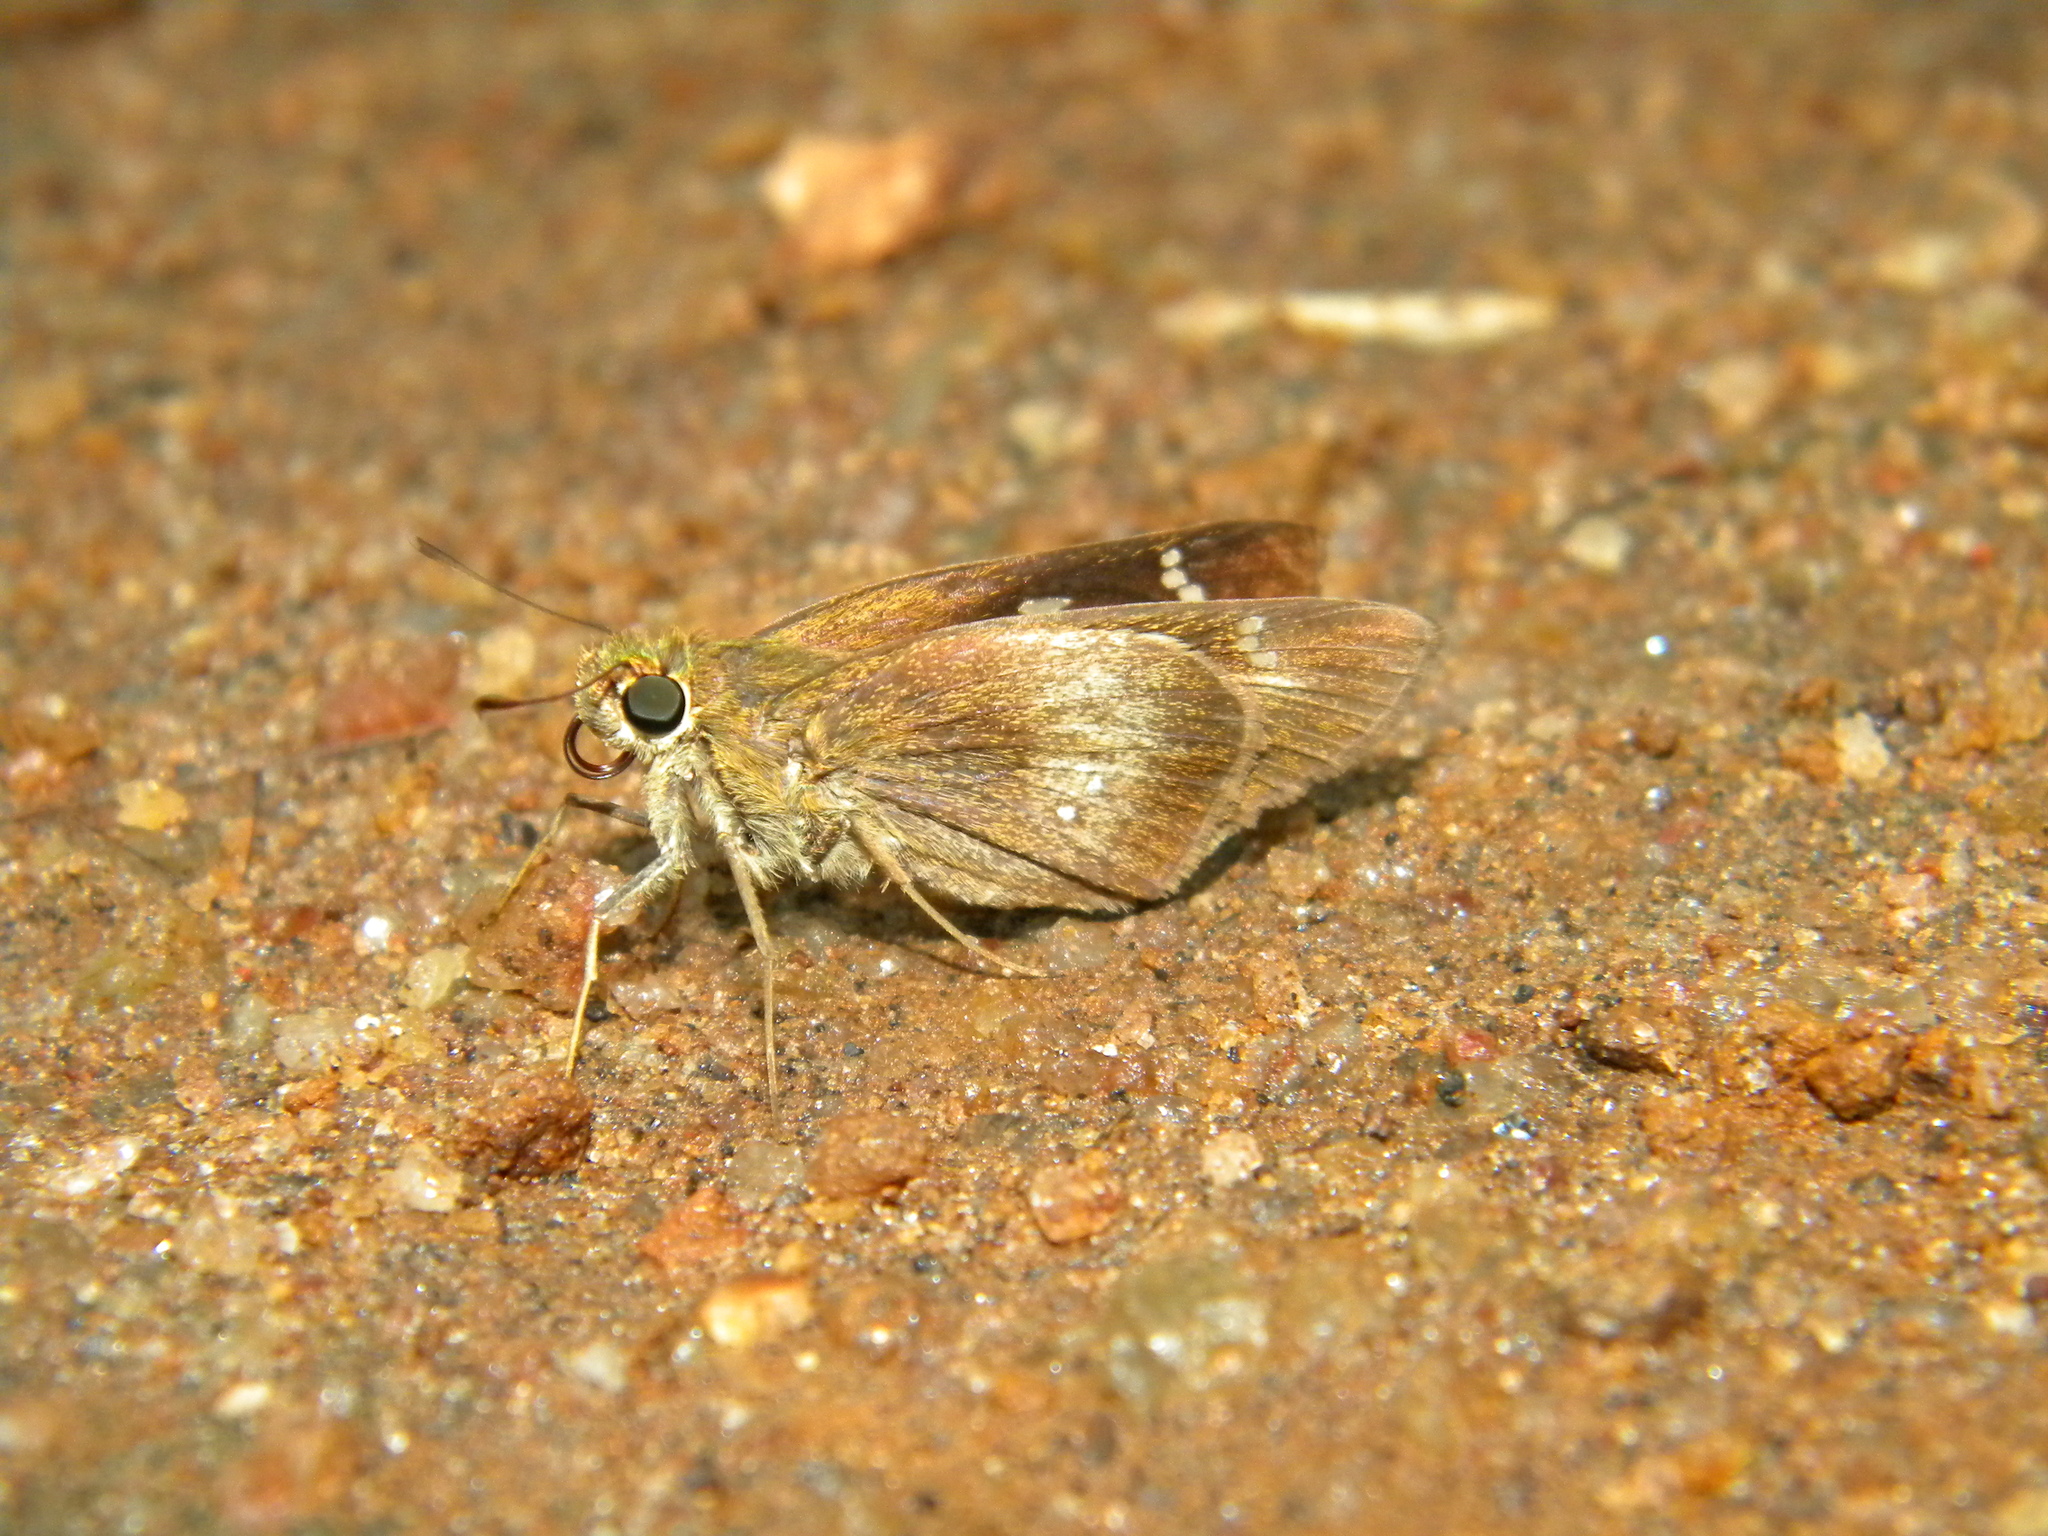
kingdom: Animalia
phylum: Arthropoda
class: Insecta
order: Lepidoptera
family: Hesperiidae
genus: Caltoris
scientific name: Caltoris canaraica
